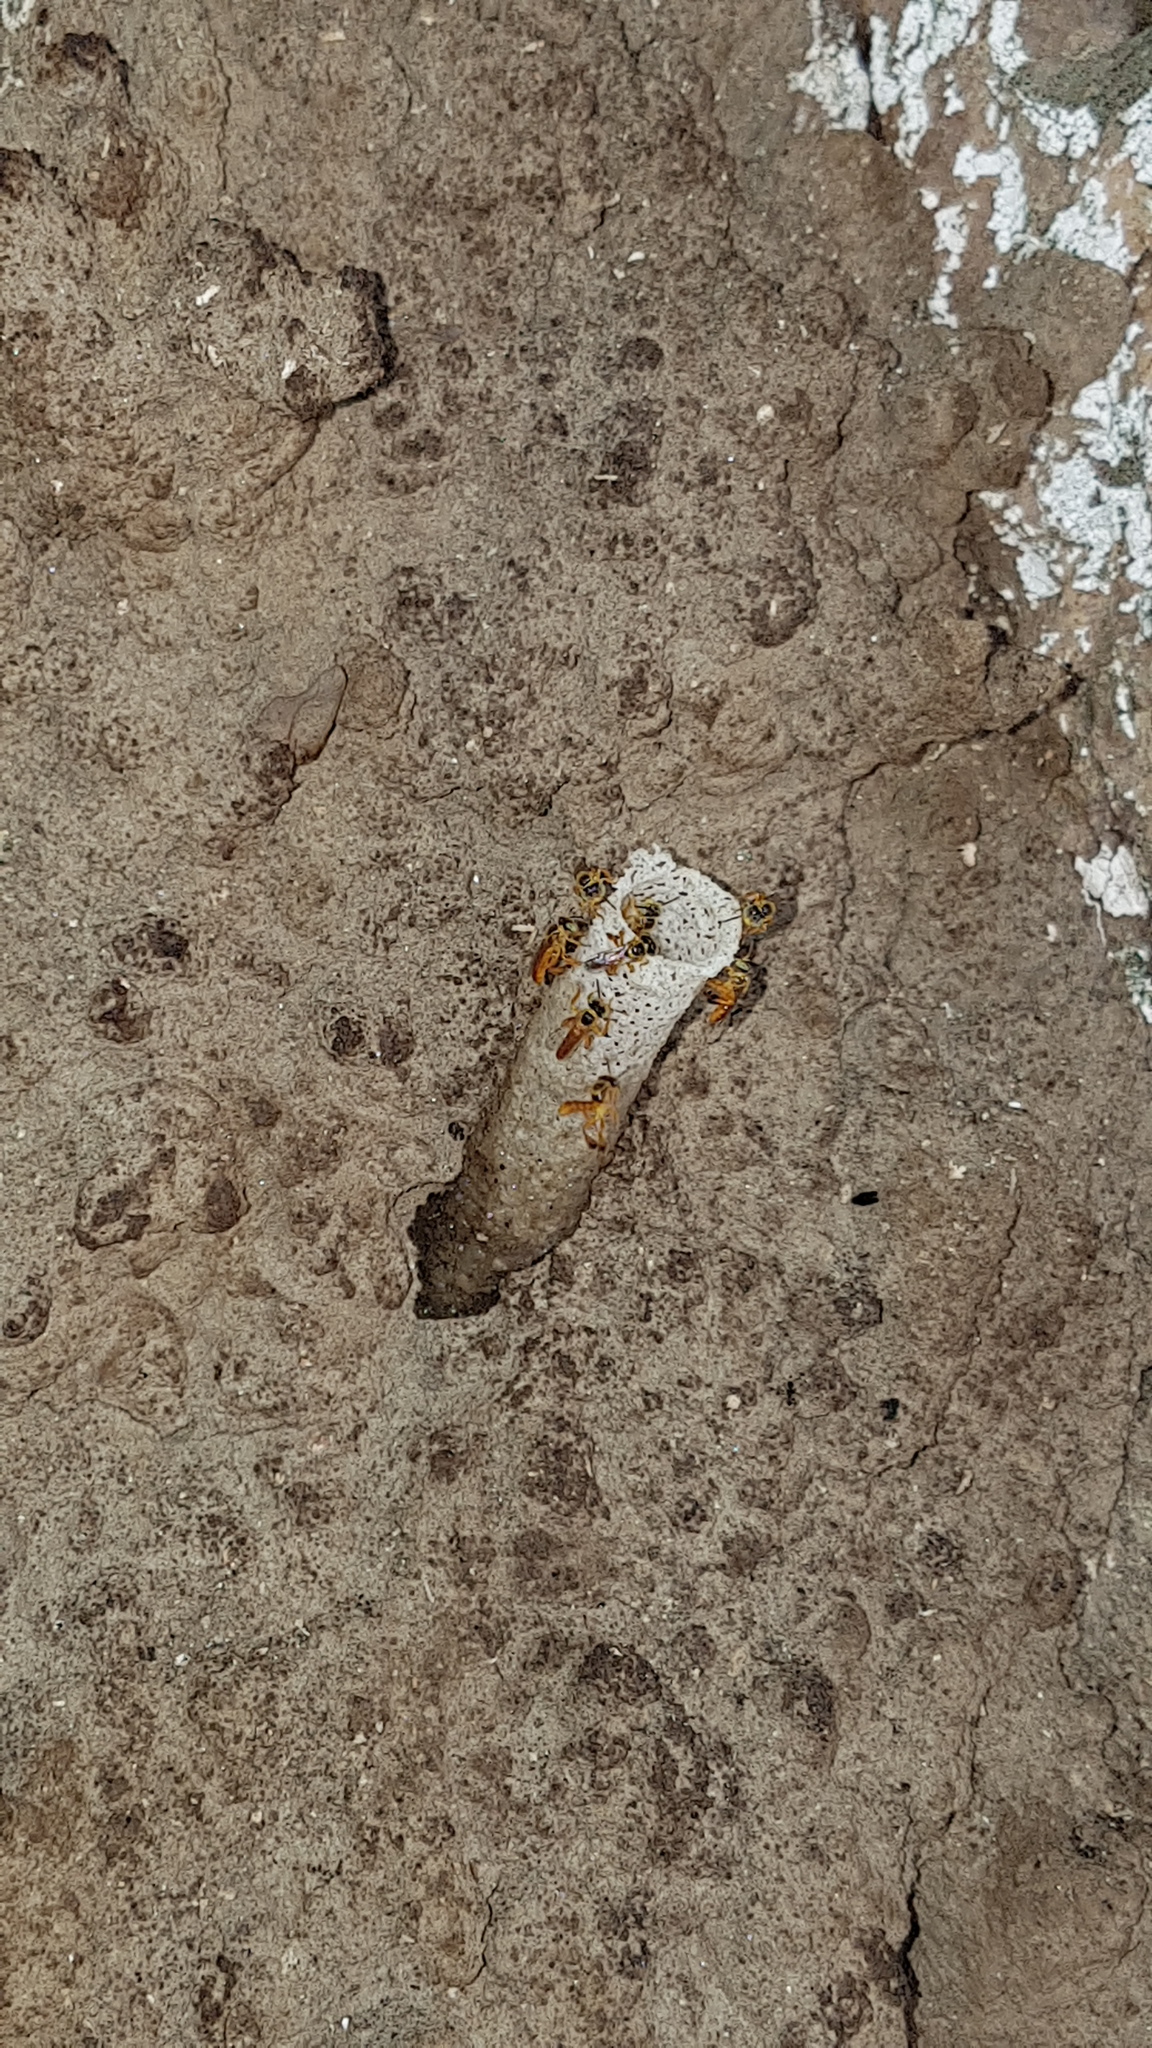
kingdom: Animalia
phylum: Arthropoda
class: Insecta
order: Hymenoptera
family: Apidae
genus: Tetragonisca
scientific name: Tetragonisca angustula
